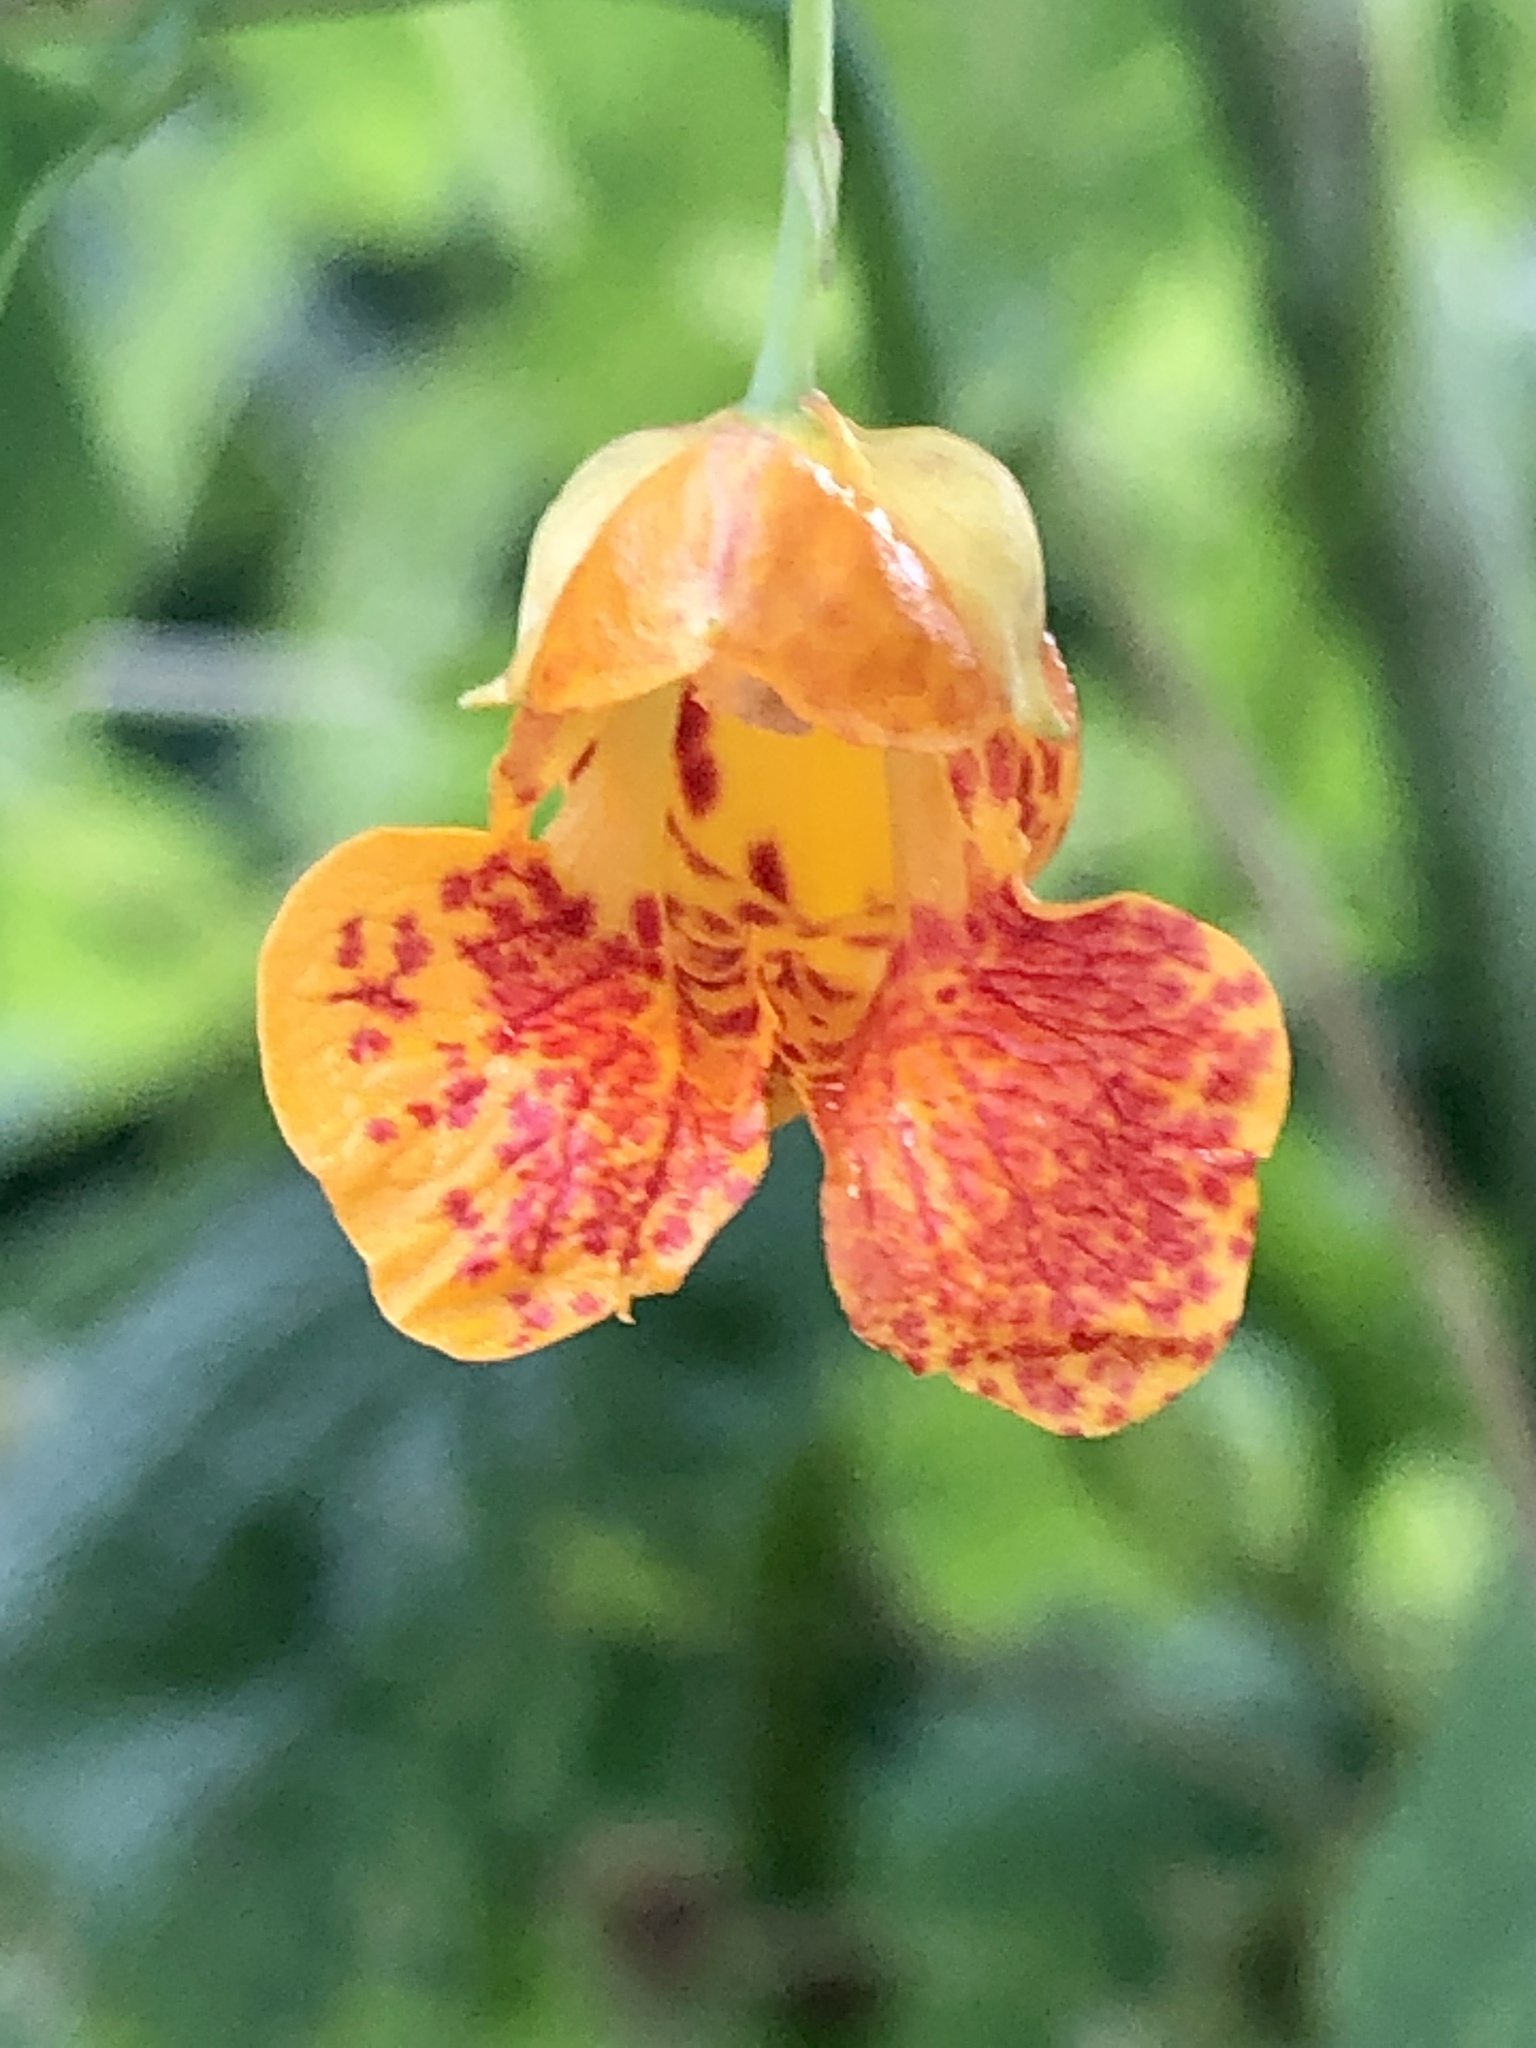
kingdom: Plantae
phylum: Tracheophyta
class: Magnoliopsida
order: Ericales
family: Balsaminaceae
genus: Impatiens
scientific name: Impatiens capensis
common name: Orange balsam
